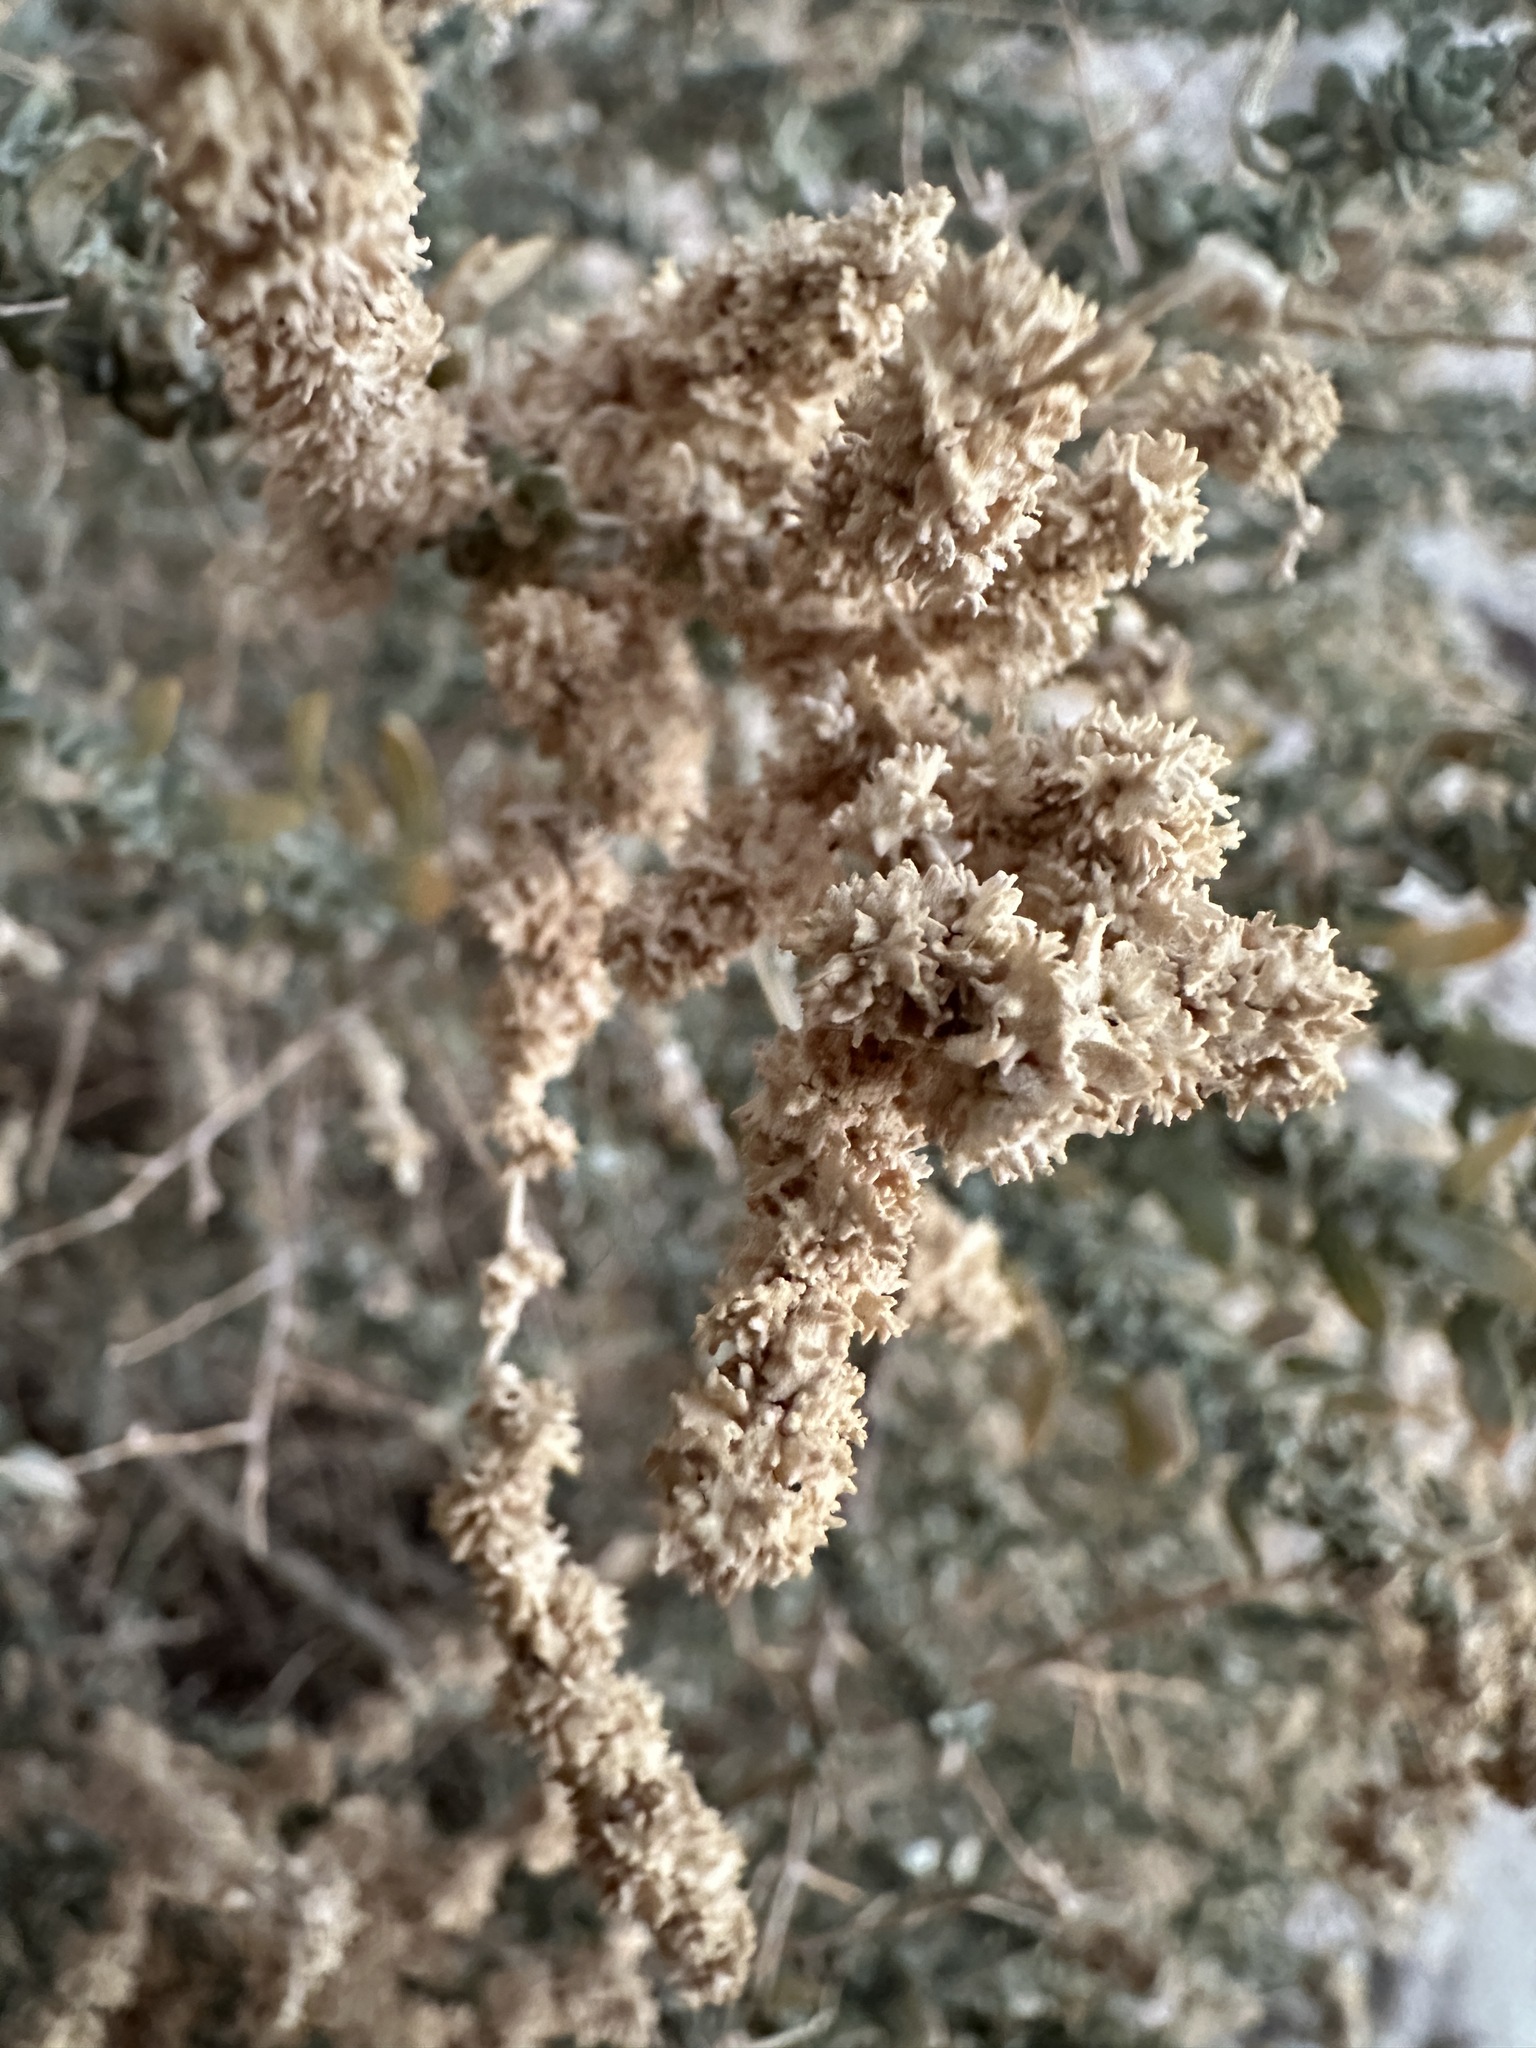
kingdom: Plantae
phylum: Tracheophyta
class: Magnoliopsida
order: Caryophyllales
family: Amaranthaceae
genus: Atriplex
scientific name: Atriplex polycarpa
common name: Desert saltbush
